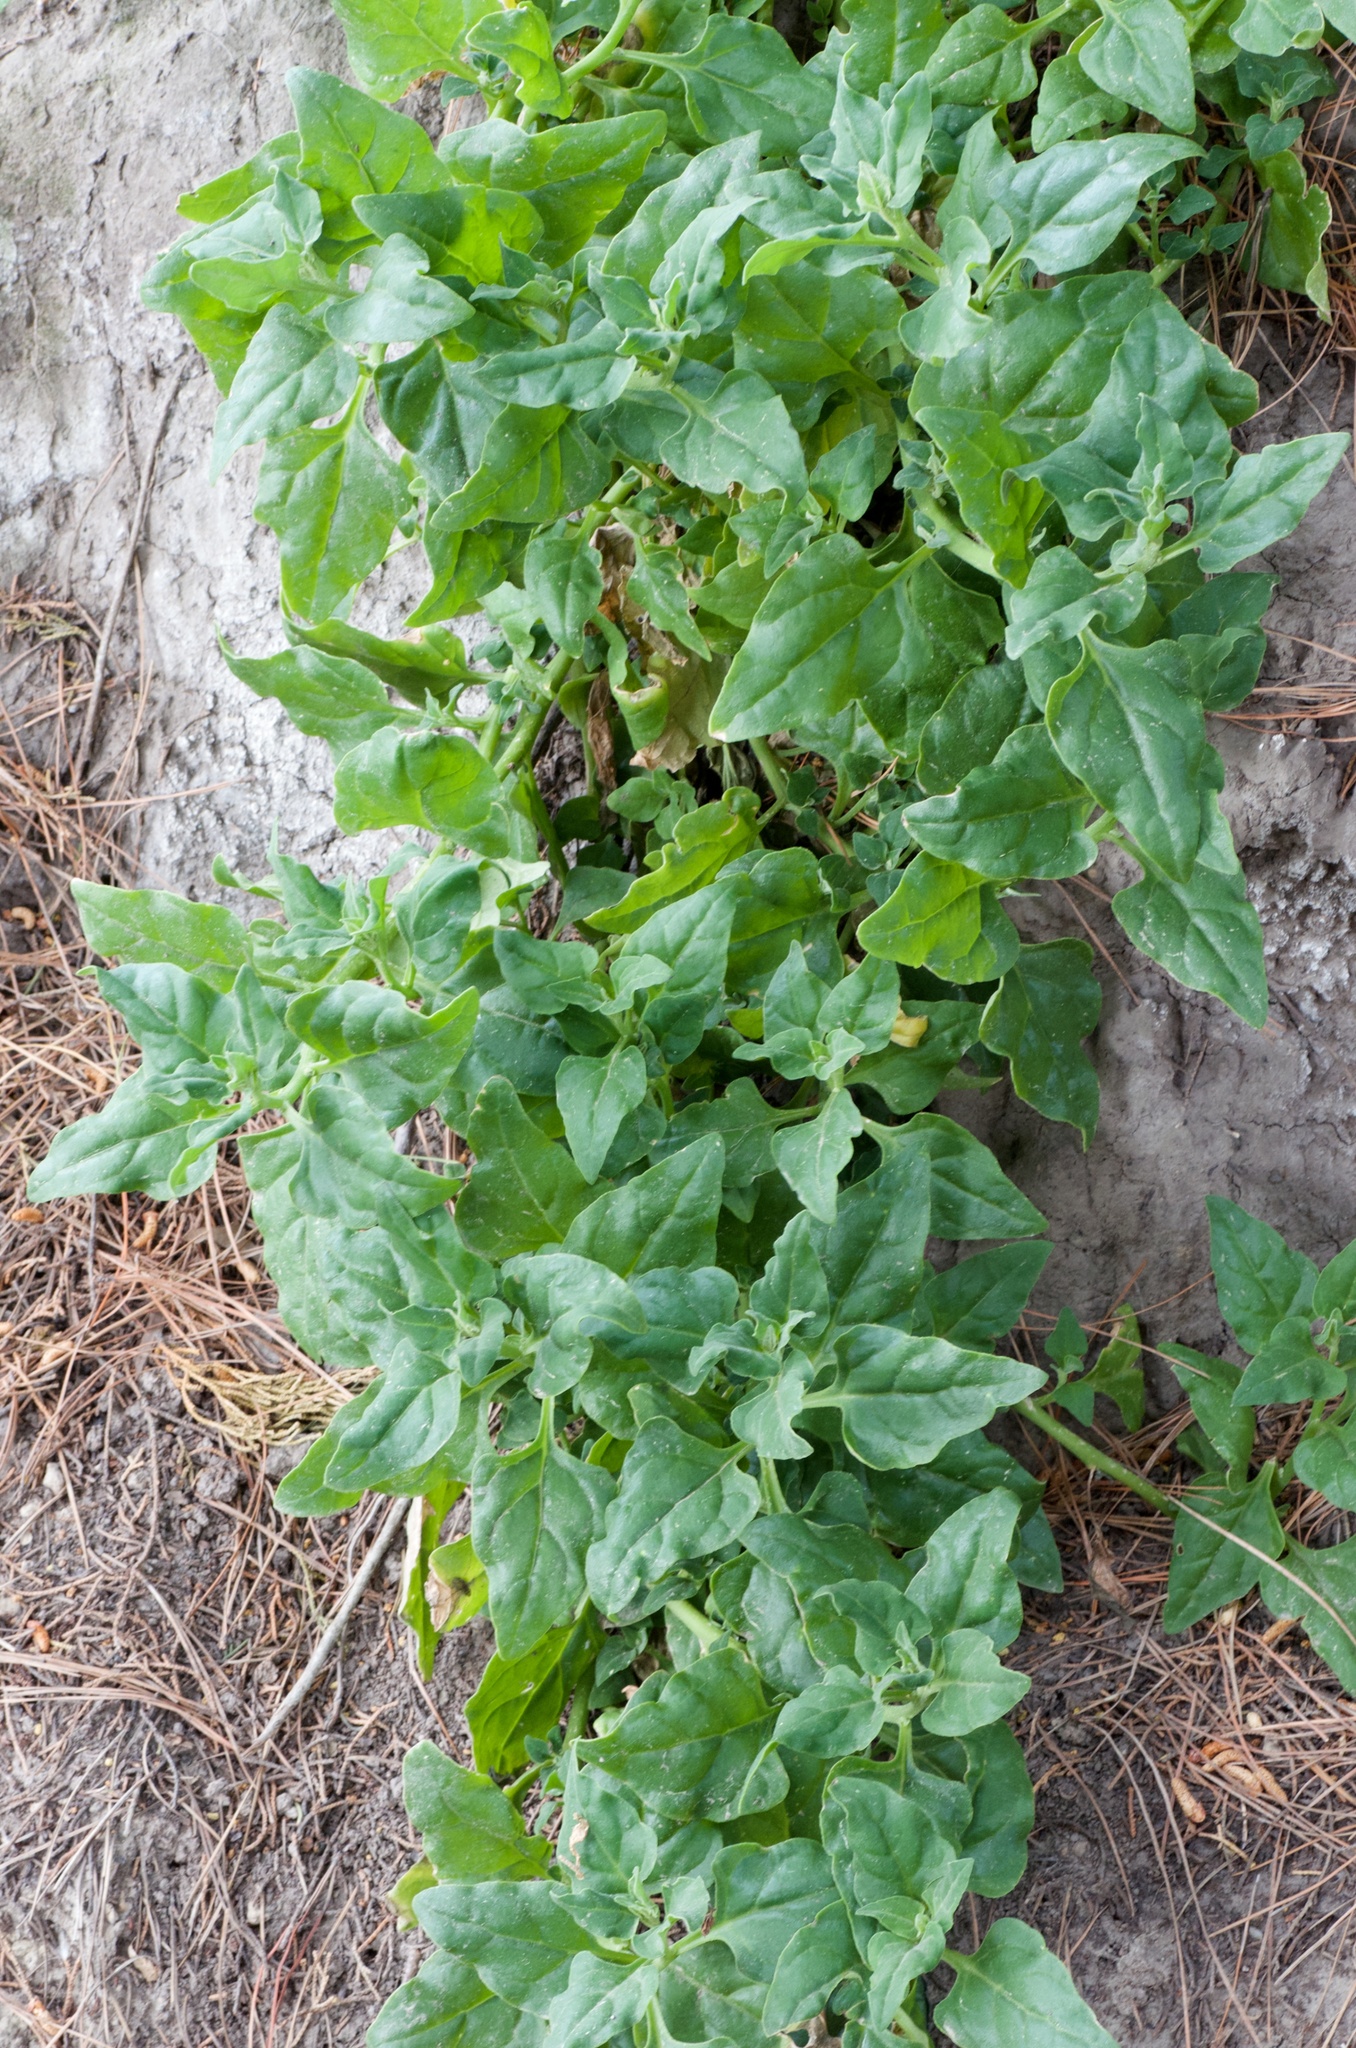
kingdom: Plantae
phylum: Tracheophyta
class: Magnoliopsida
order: Caryophyllales
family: Aizoaceae
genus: Tetragonia
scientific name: Tetragonia tetragonoides
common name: New zealand-spinach
